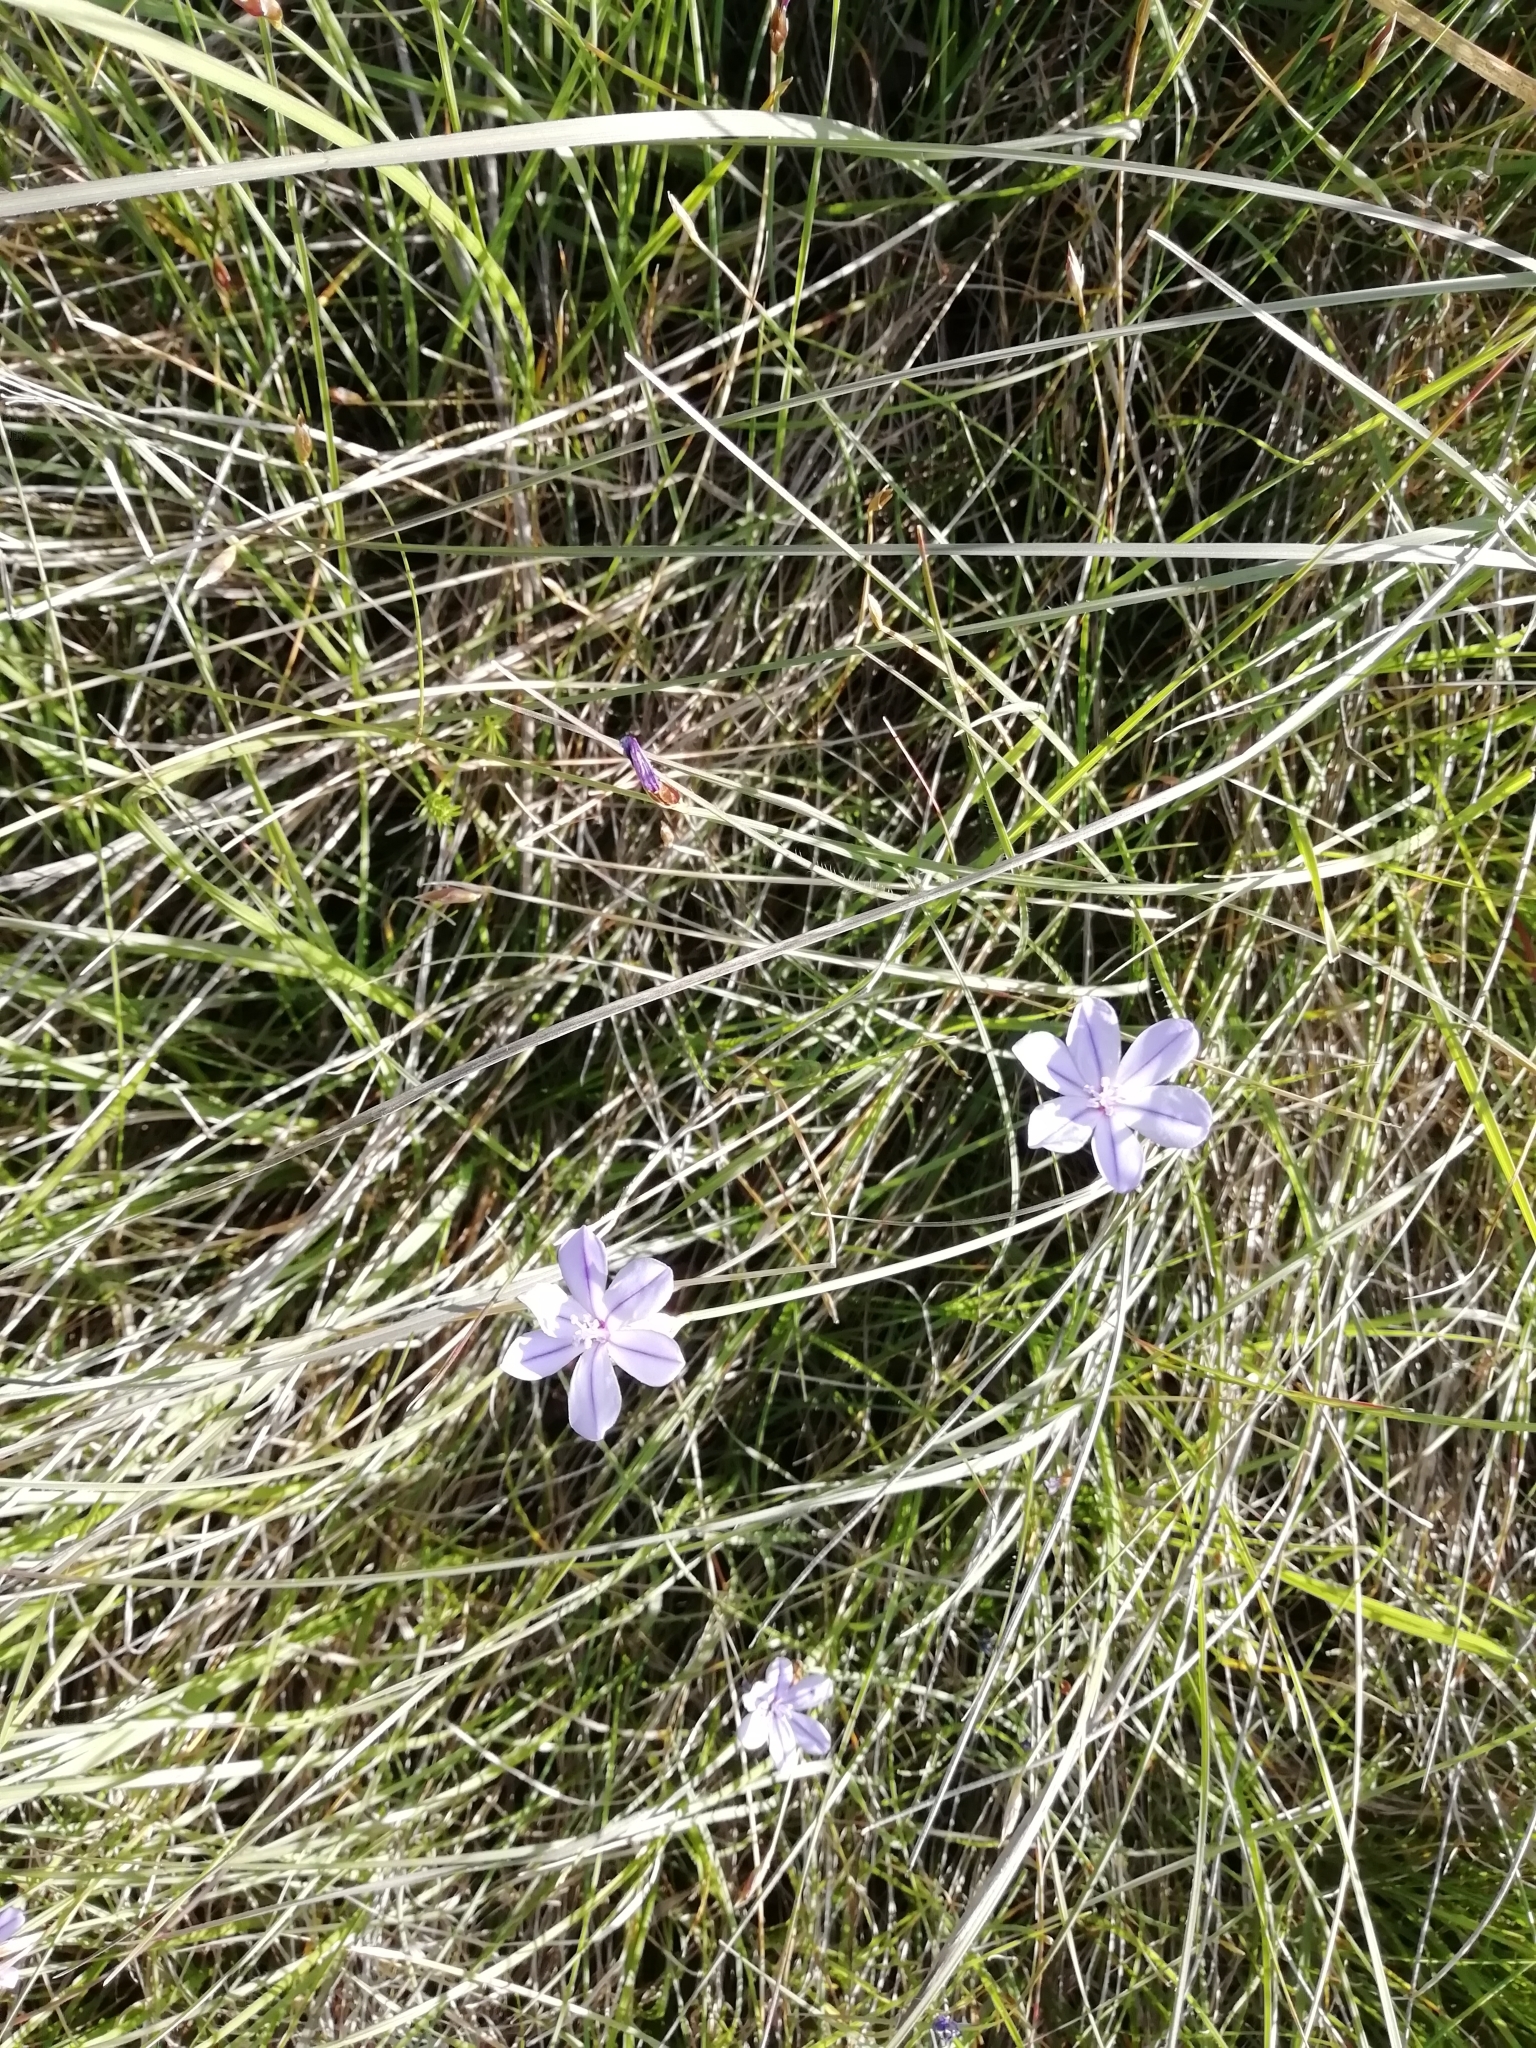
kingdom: Plantae
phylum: Tracheophyta
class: Liliopsida
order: Asparagales
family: Asparagaceae
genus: Aphyllanthes
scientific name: Aphyllanthes monspeliensis
